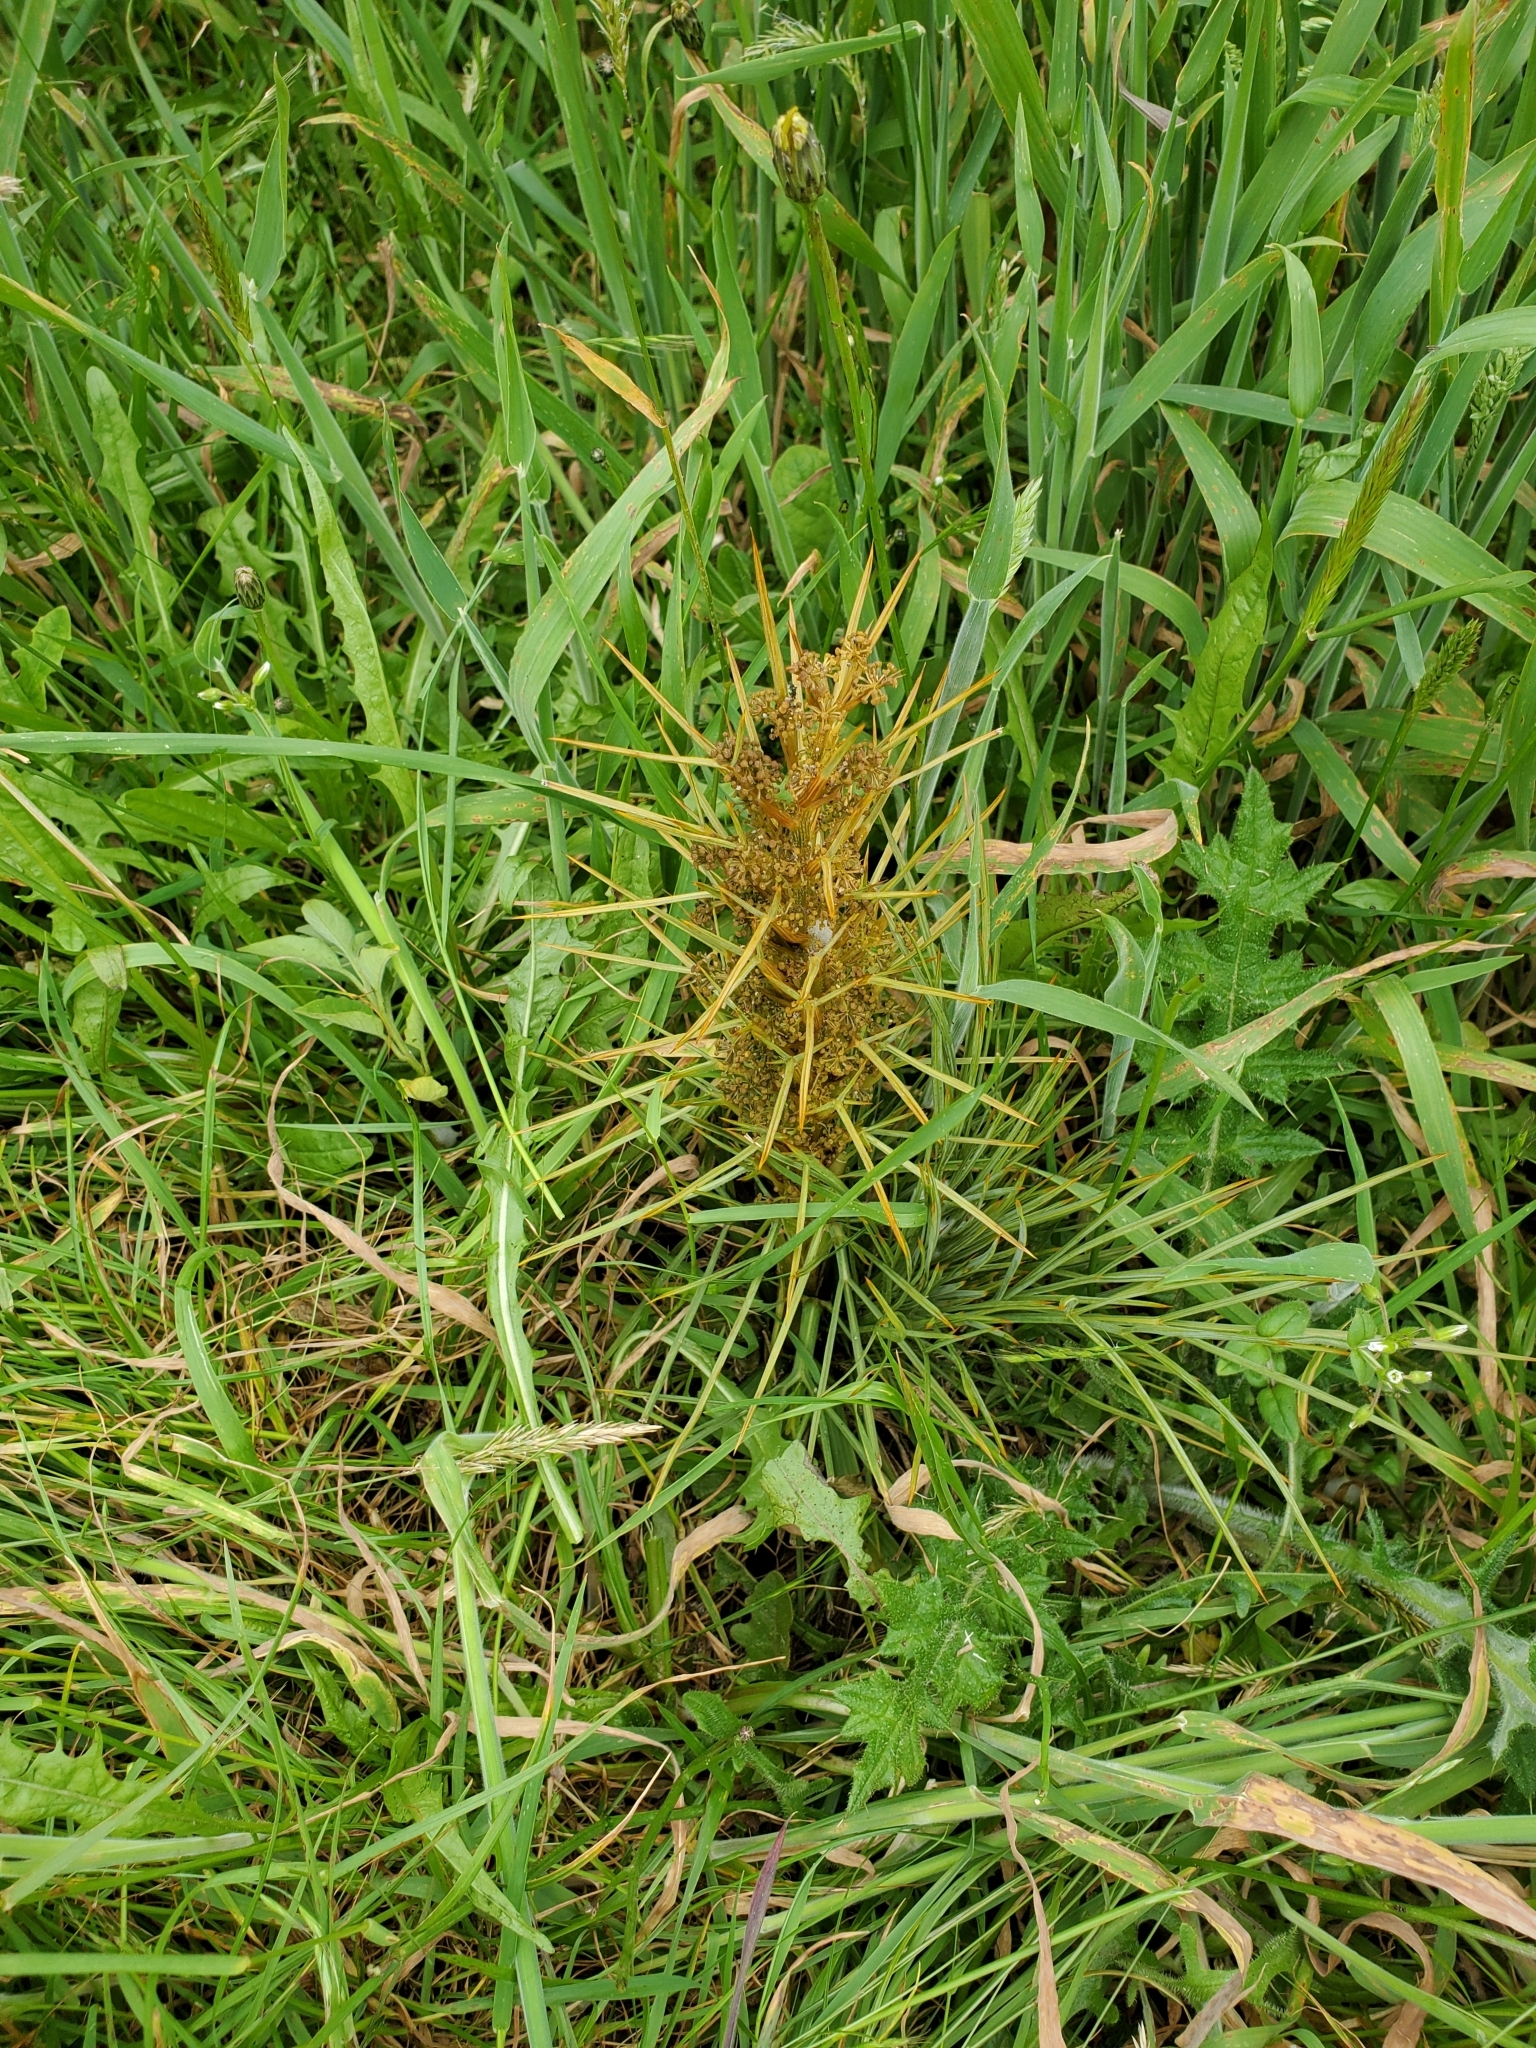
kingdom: Plantae
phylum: Tracheophyta
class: Magnoliopsida
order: Apiales
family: Apiaceae
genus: Aciphylla
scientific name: Aciphylla squarrosa
